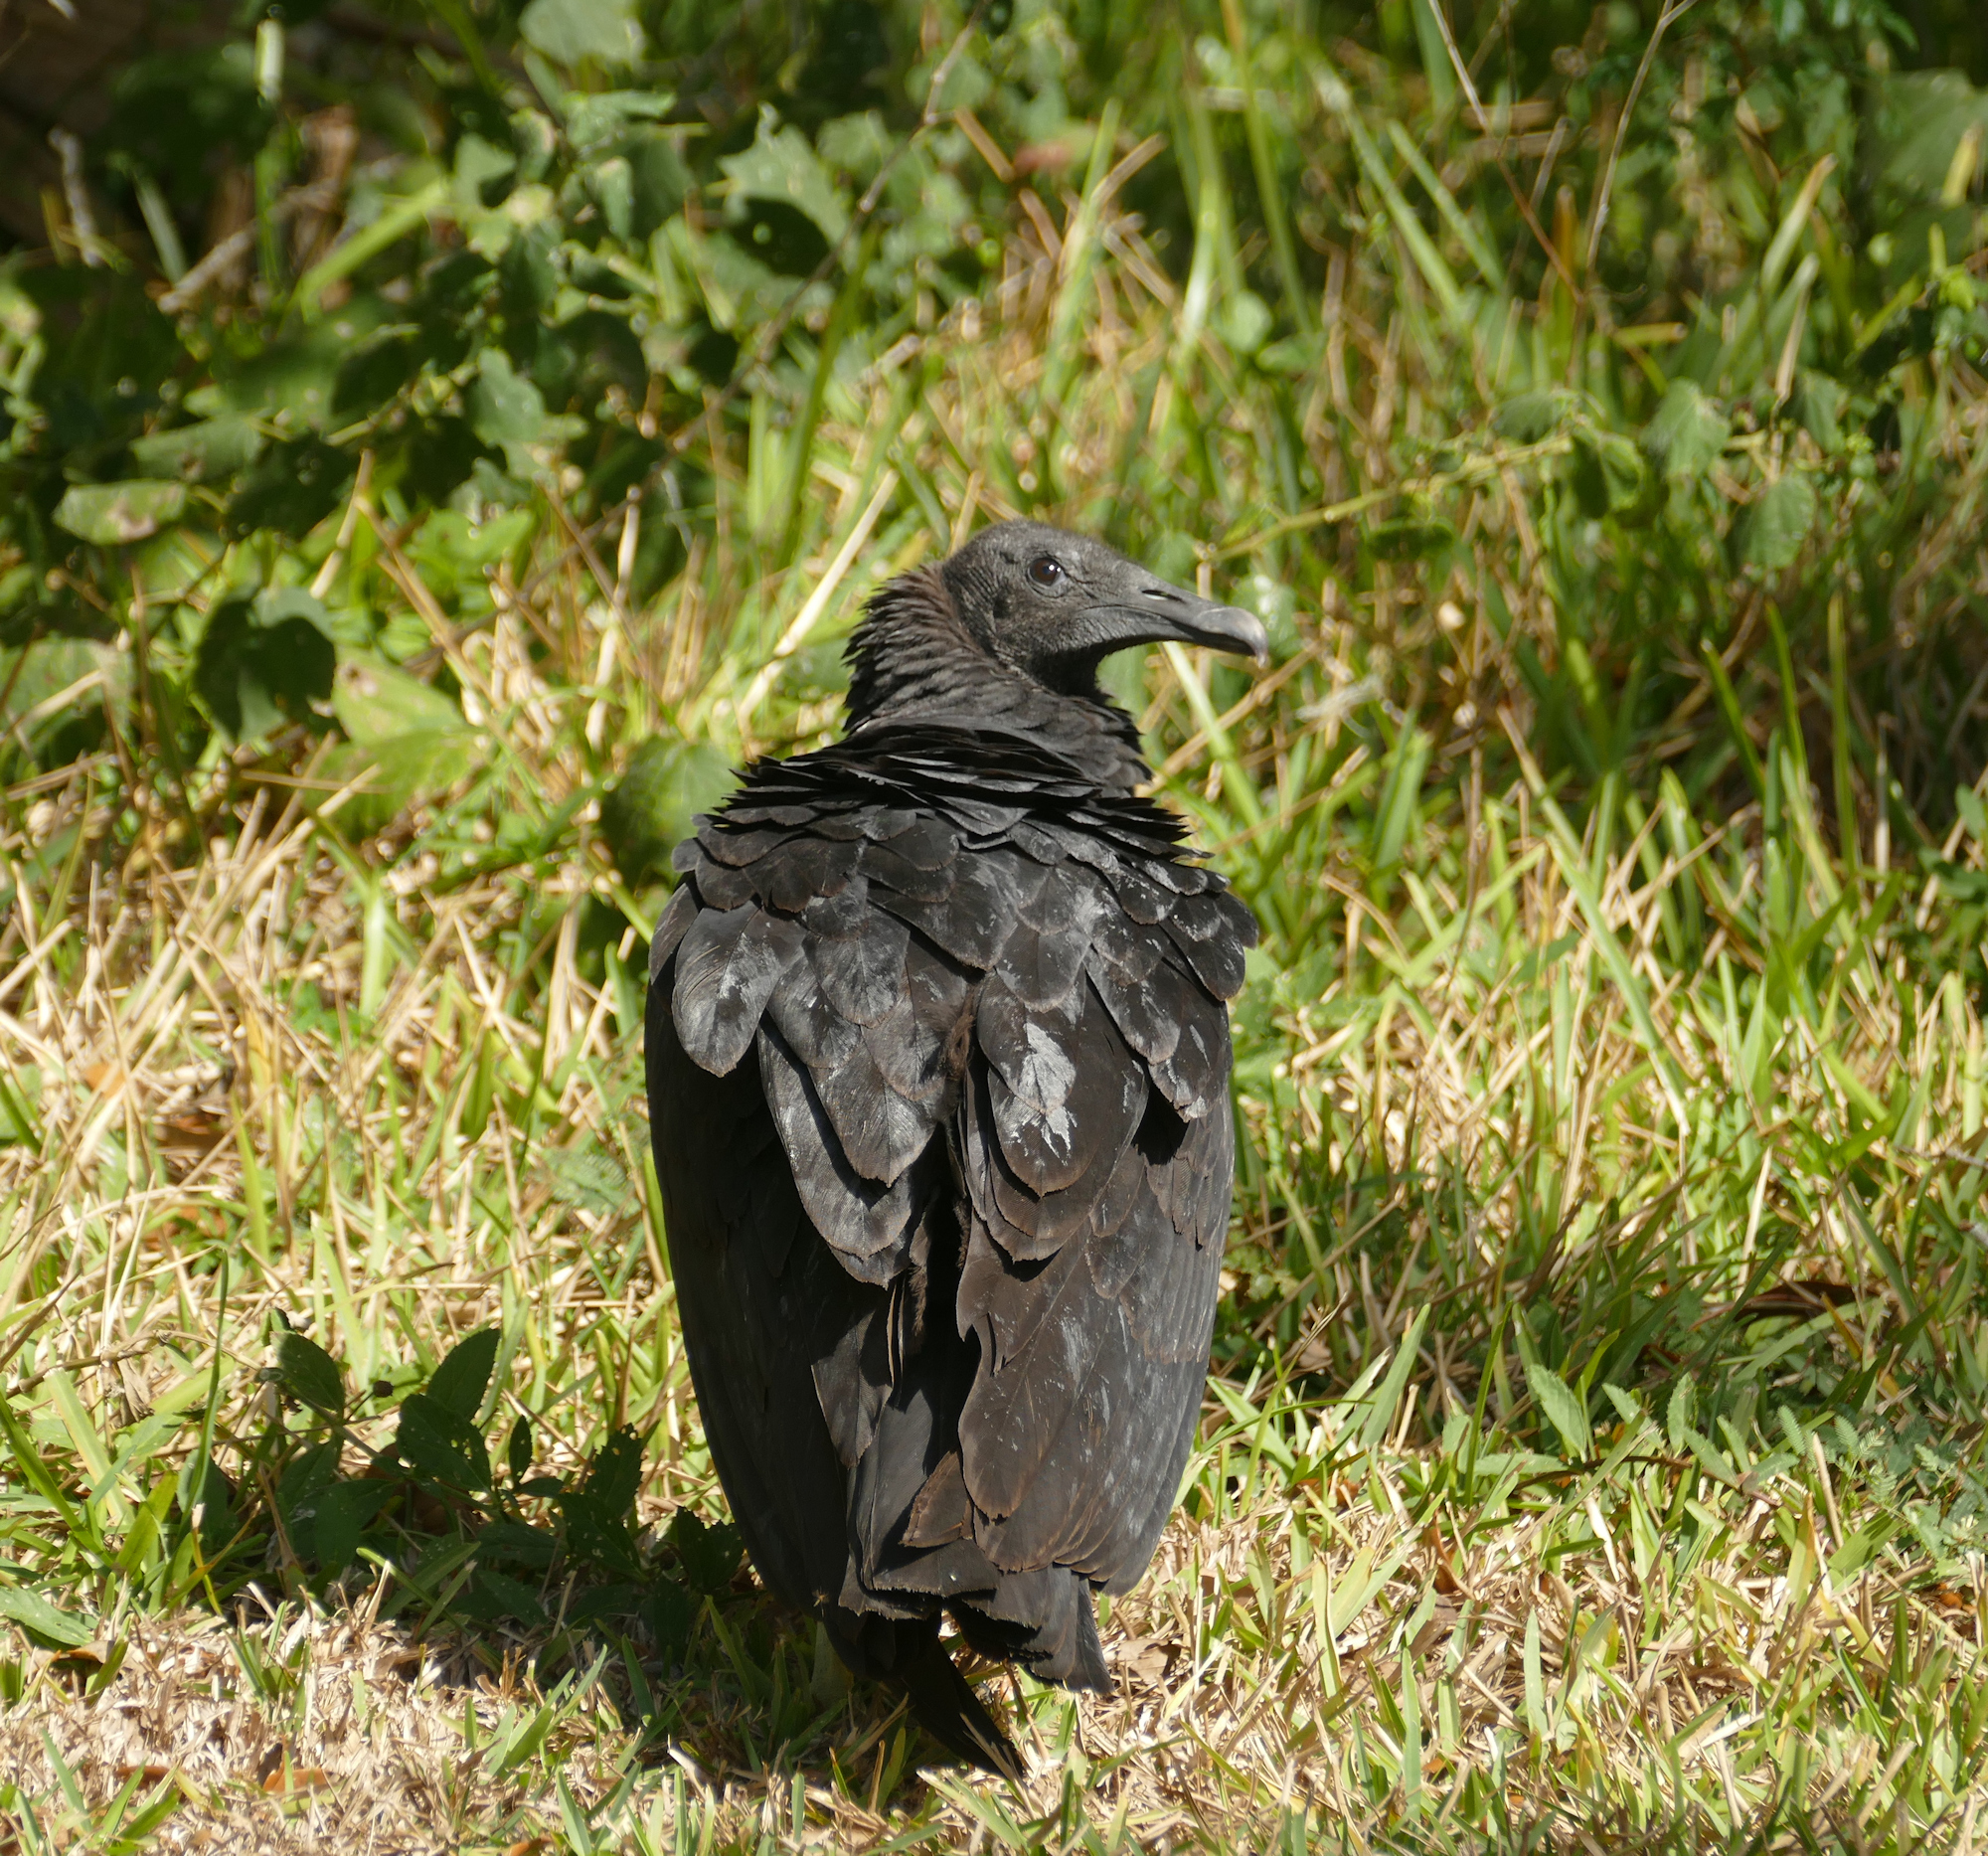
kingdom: Animalia
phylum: Chordata
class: Aves
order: Accipitriformes
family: Cathartidae
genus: Coragyps
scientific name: Coragyps atratus
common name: Black vulture
